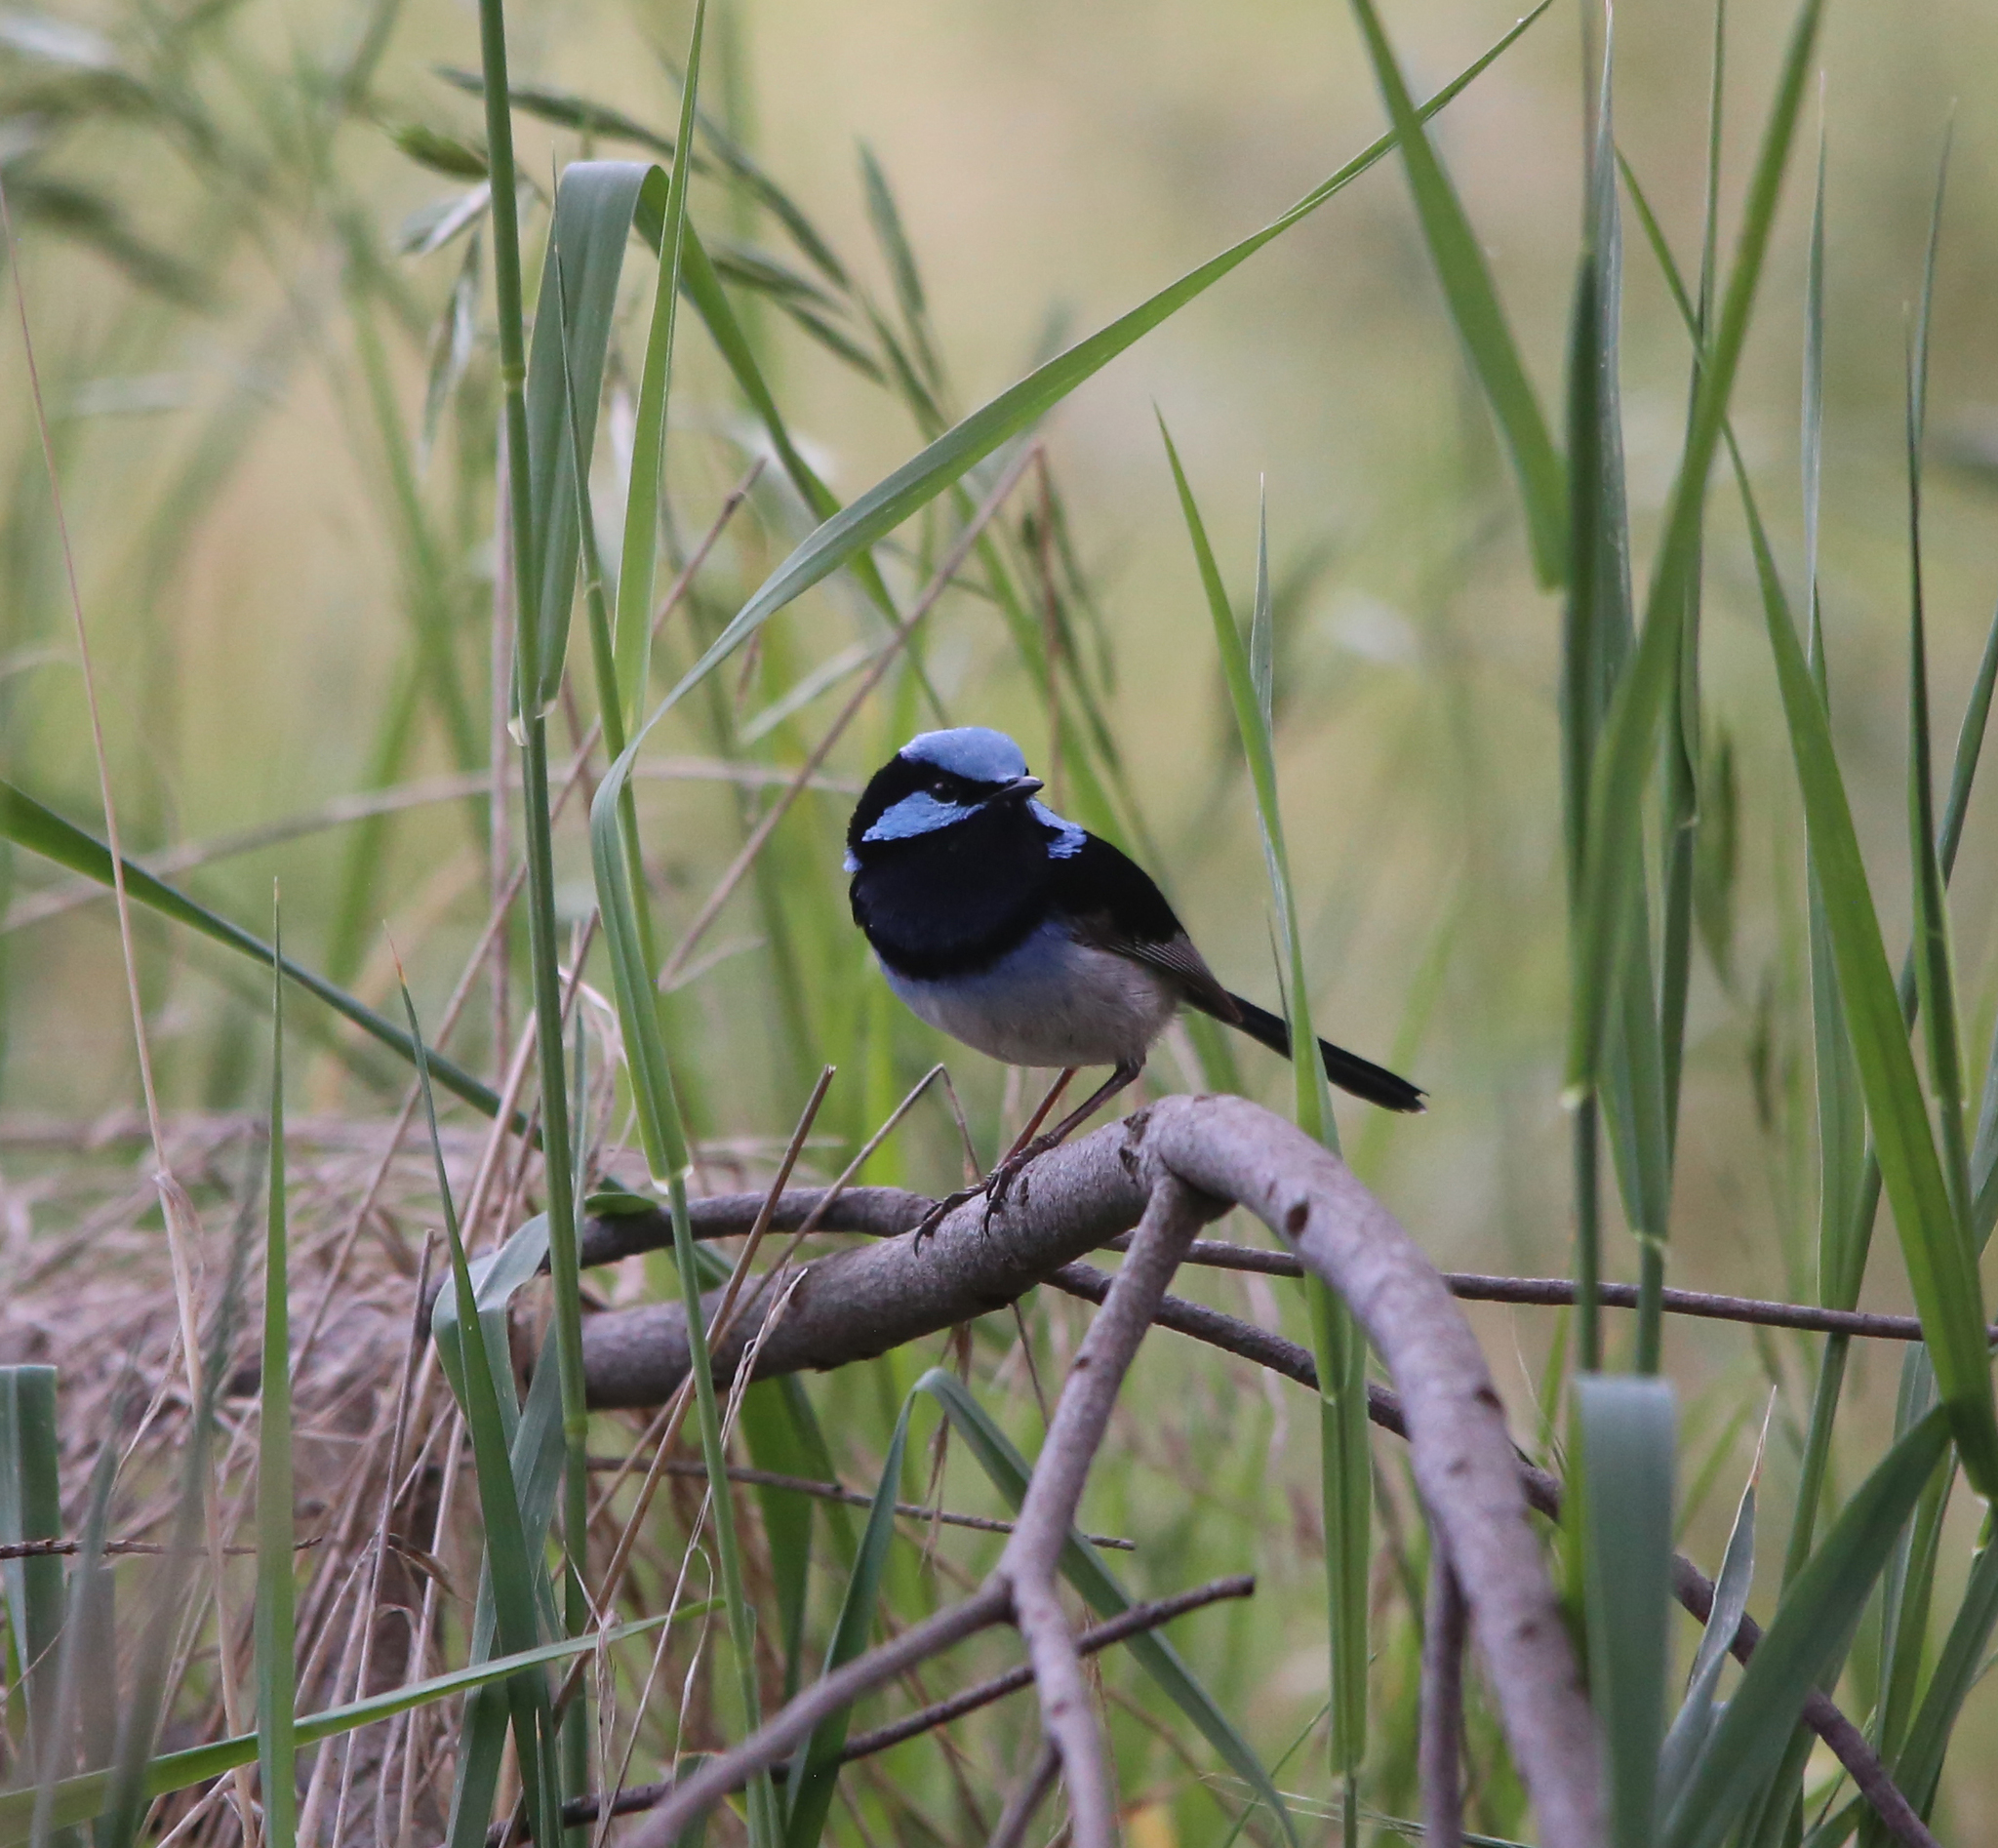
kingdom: Animalia
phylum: Chordata
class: Aves
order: Passeriformes
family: Maluridae
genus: Malurus
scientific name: Malurus cyaneus
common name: Superb fairywren
